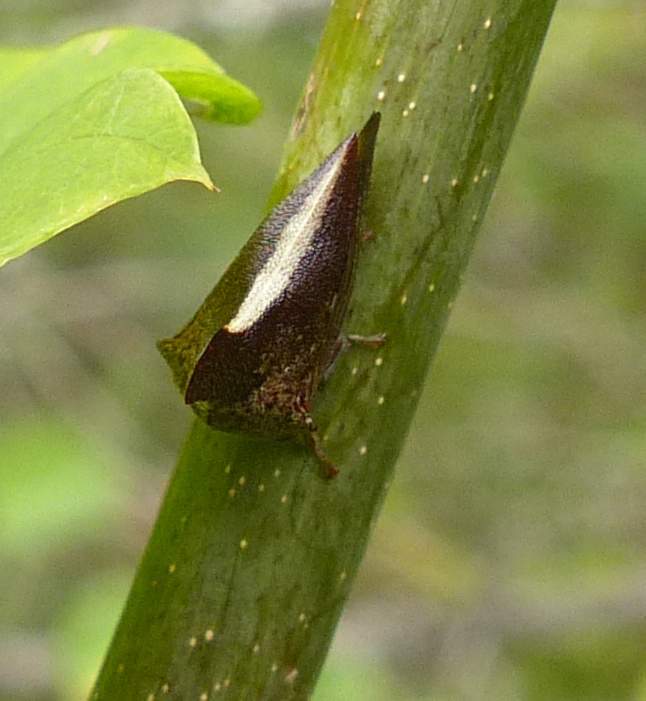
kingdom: Animalia
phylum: Arthropoda
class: Insecta
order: Hemiptera
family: Membracidae
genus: Glossonotus
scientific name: Glossonotus univittatus
